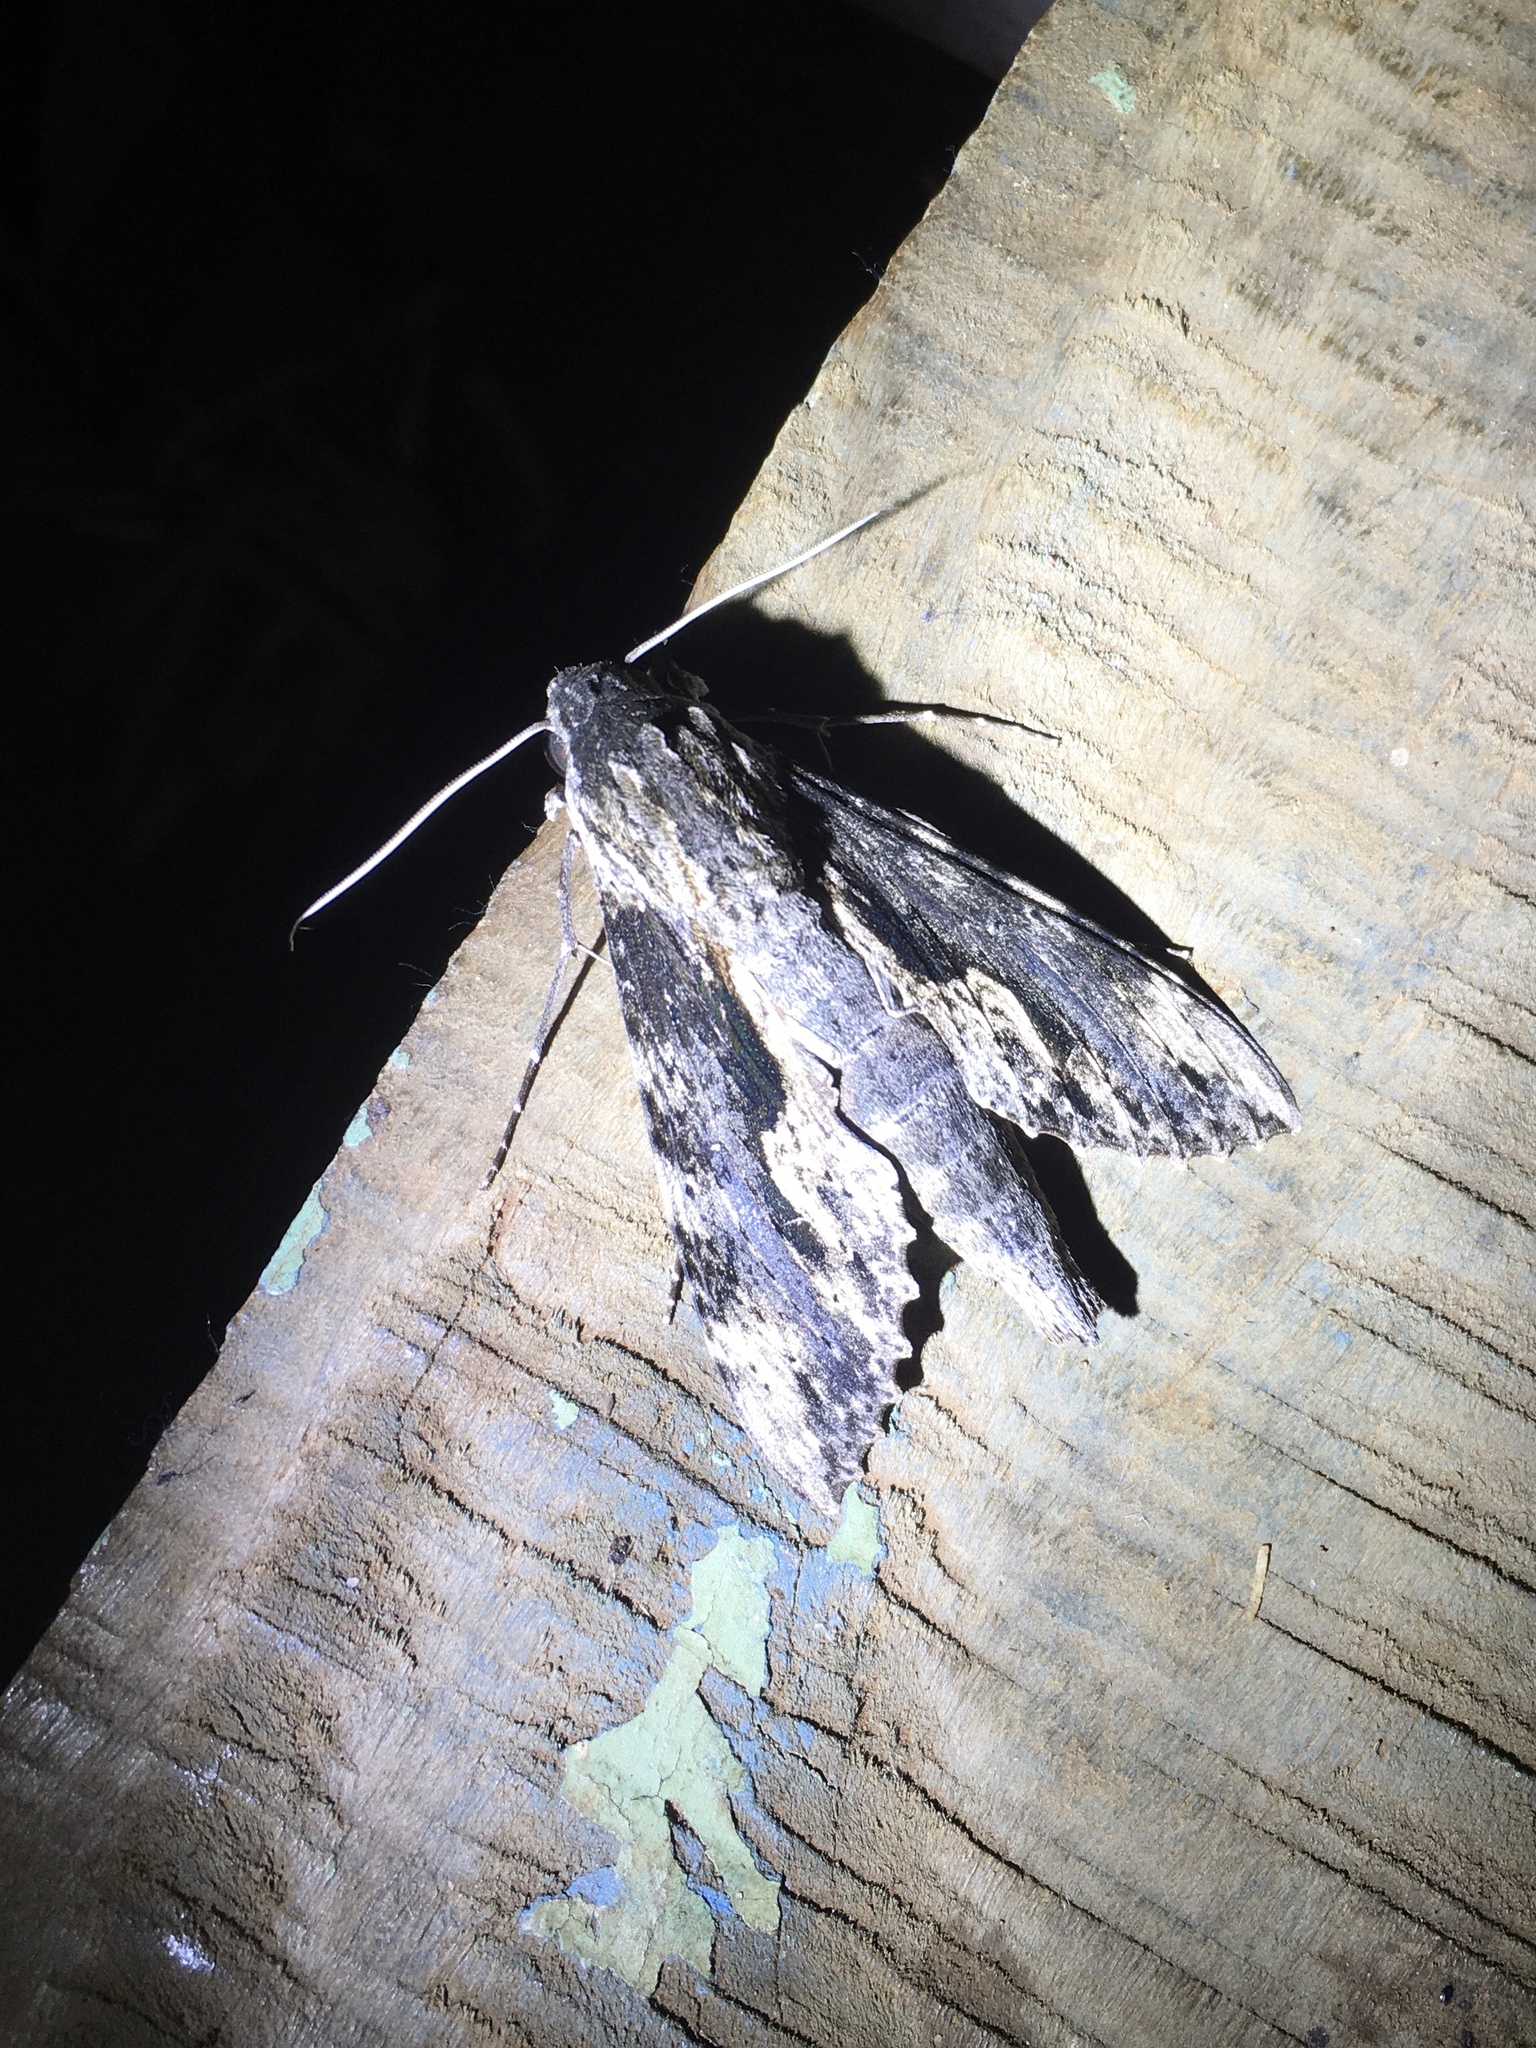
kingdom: Animalia
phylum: Arthropoda
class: Insecta
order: Lepidoptera
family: Sphingidae
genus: Erinnyis
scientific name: Erinnyis oenotrus
